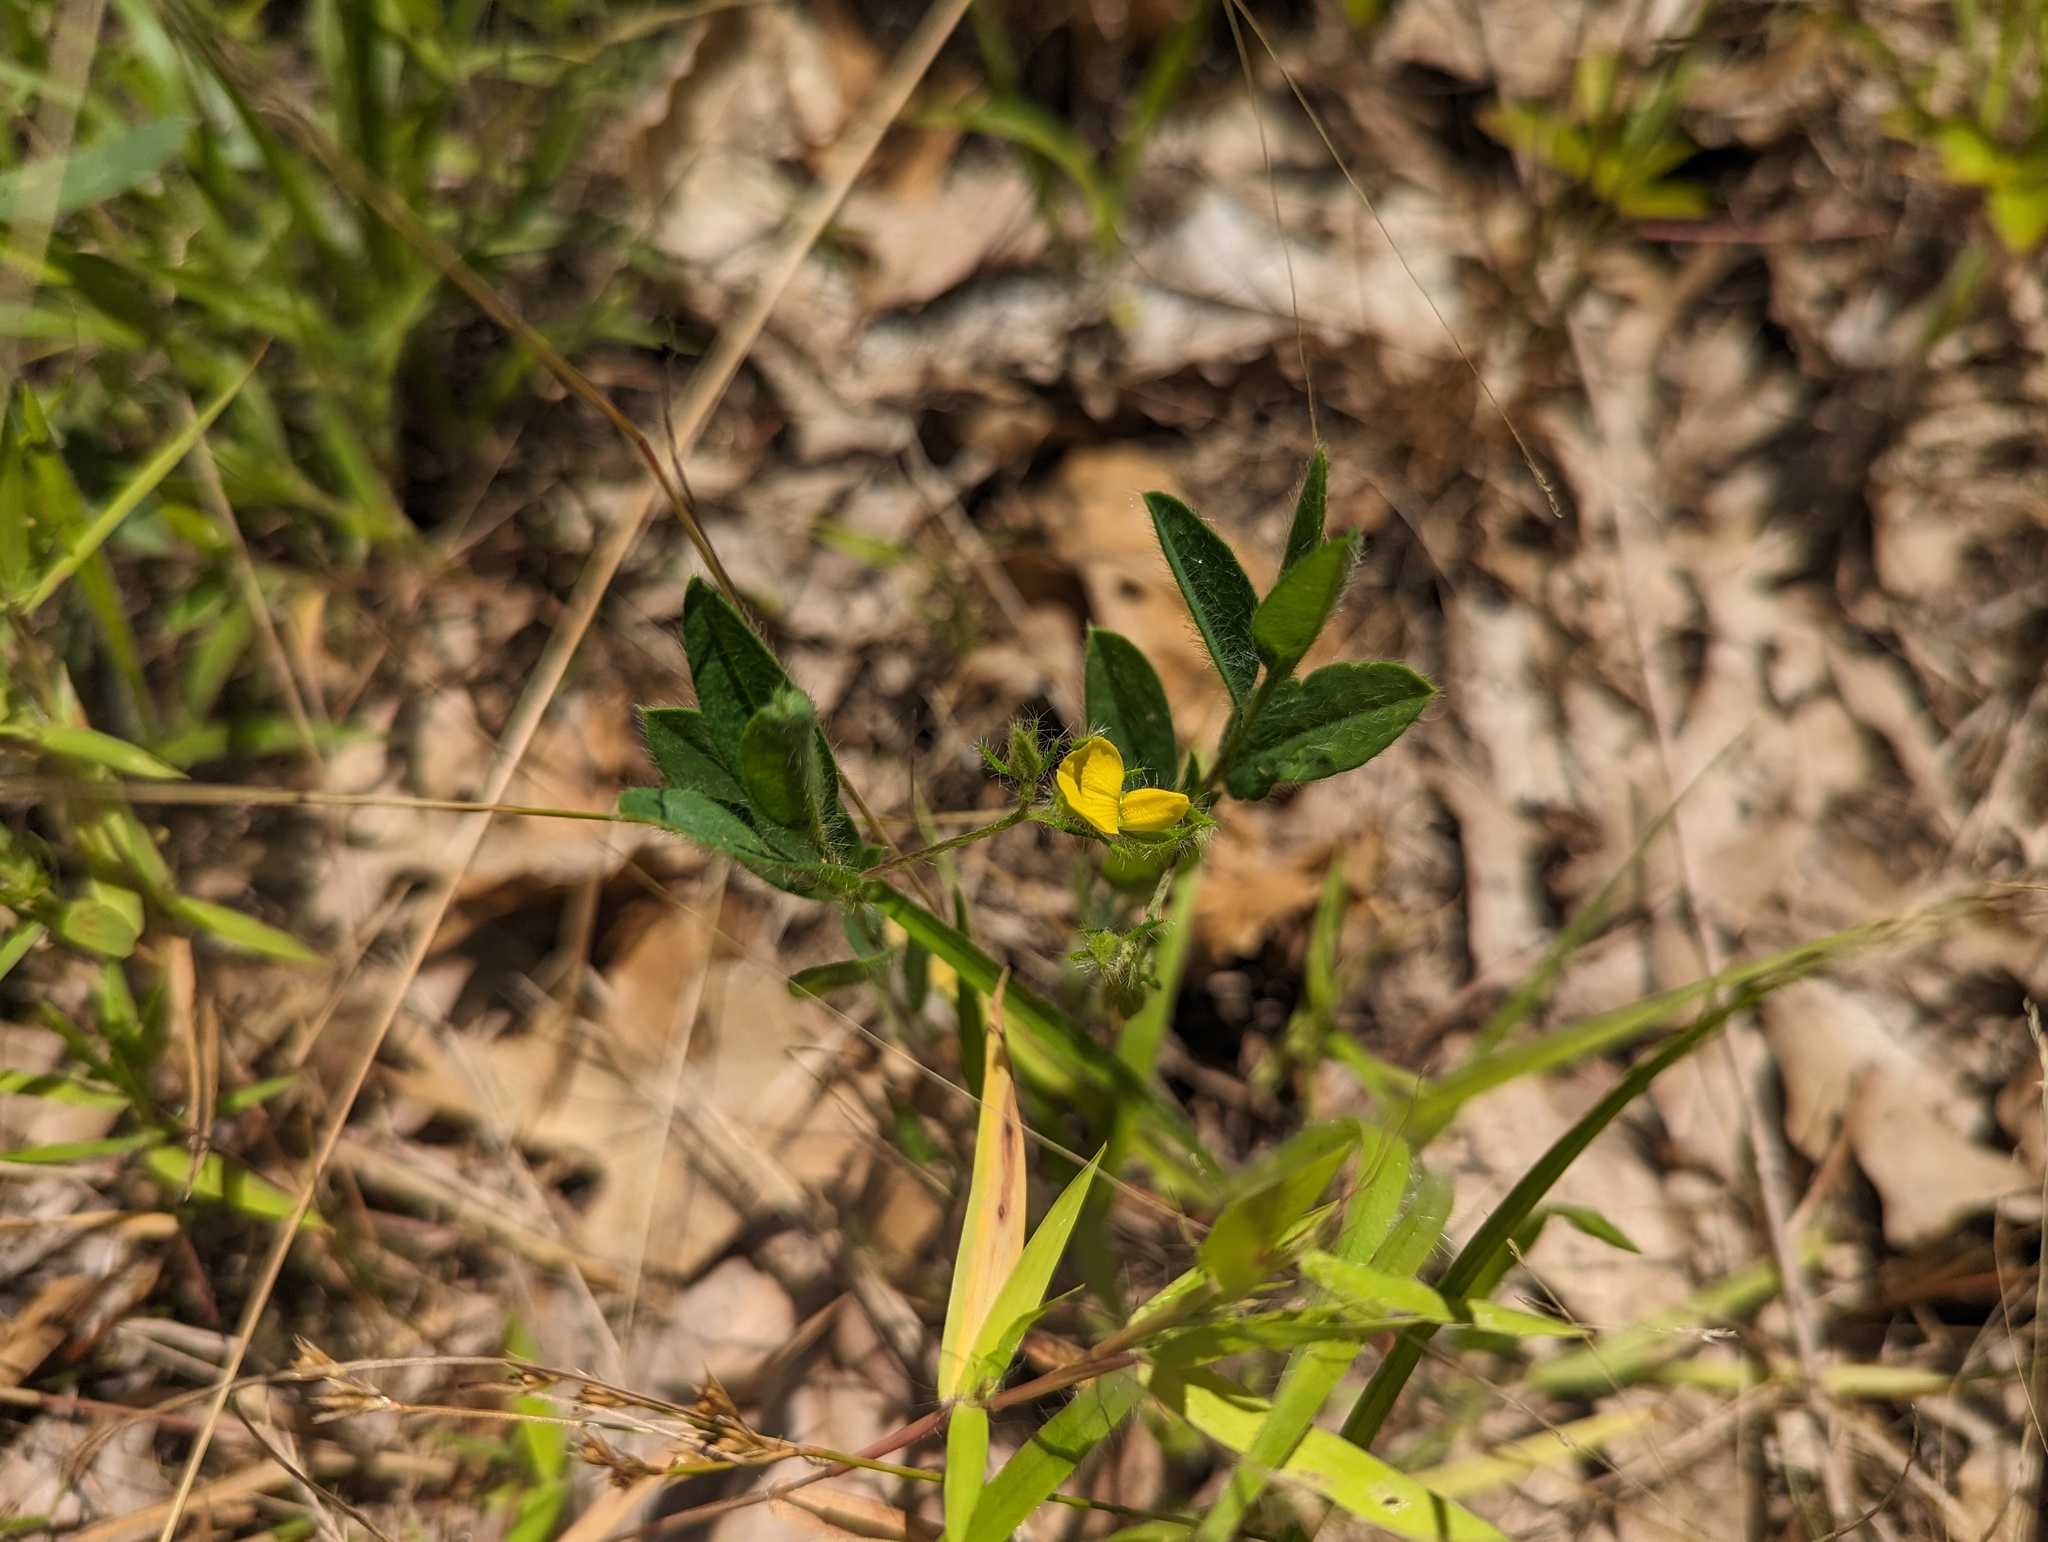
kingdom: Plantae
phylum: Tracheophyta
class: Magnoliopsida
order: Fabales
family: Fabaceae
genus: Crotalaria
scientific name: Crotalaria sagittalis
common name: Arrowhead rattlebox
